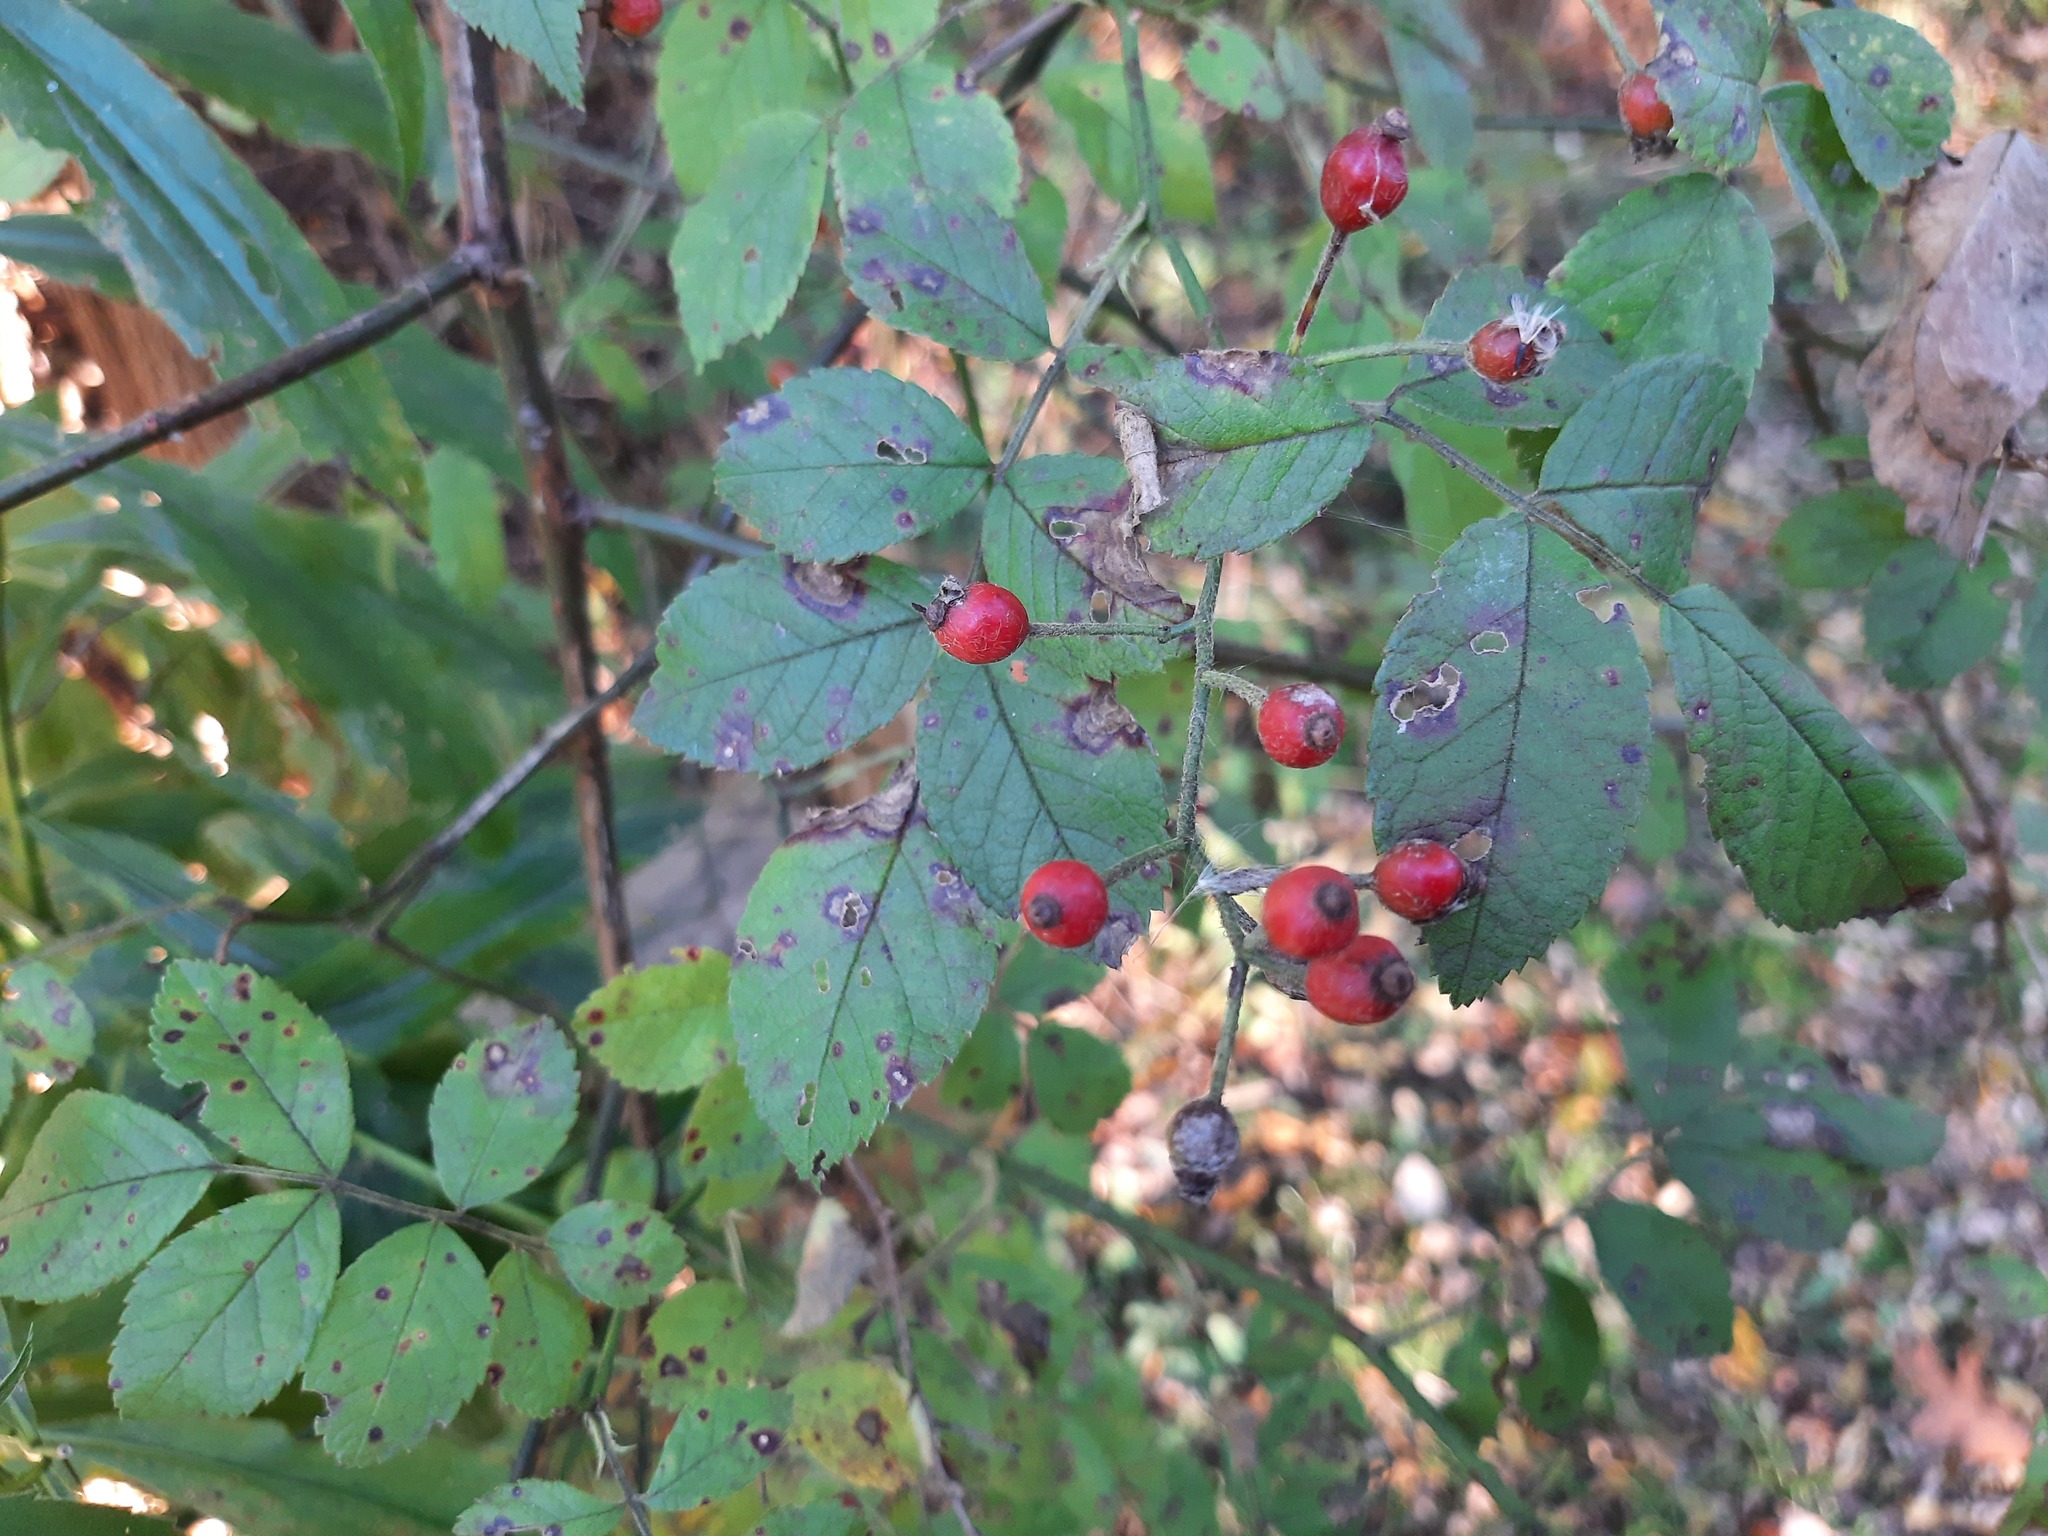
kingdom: Plantae
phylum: Tracheophyta
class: Magnoliopsida
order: Rosales
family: Rosaceae
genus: Rosa
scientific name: Rosa multiflora
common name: Multiflora rose
